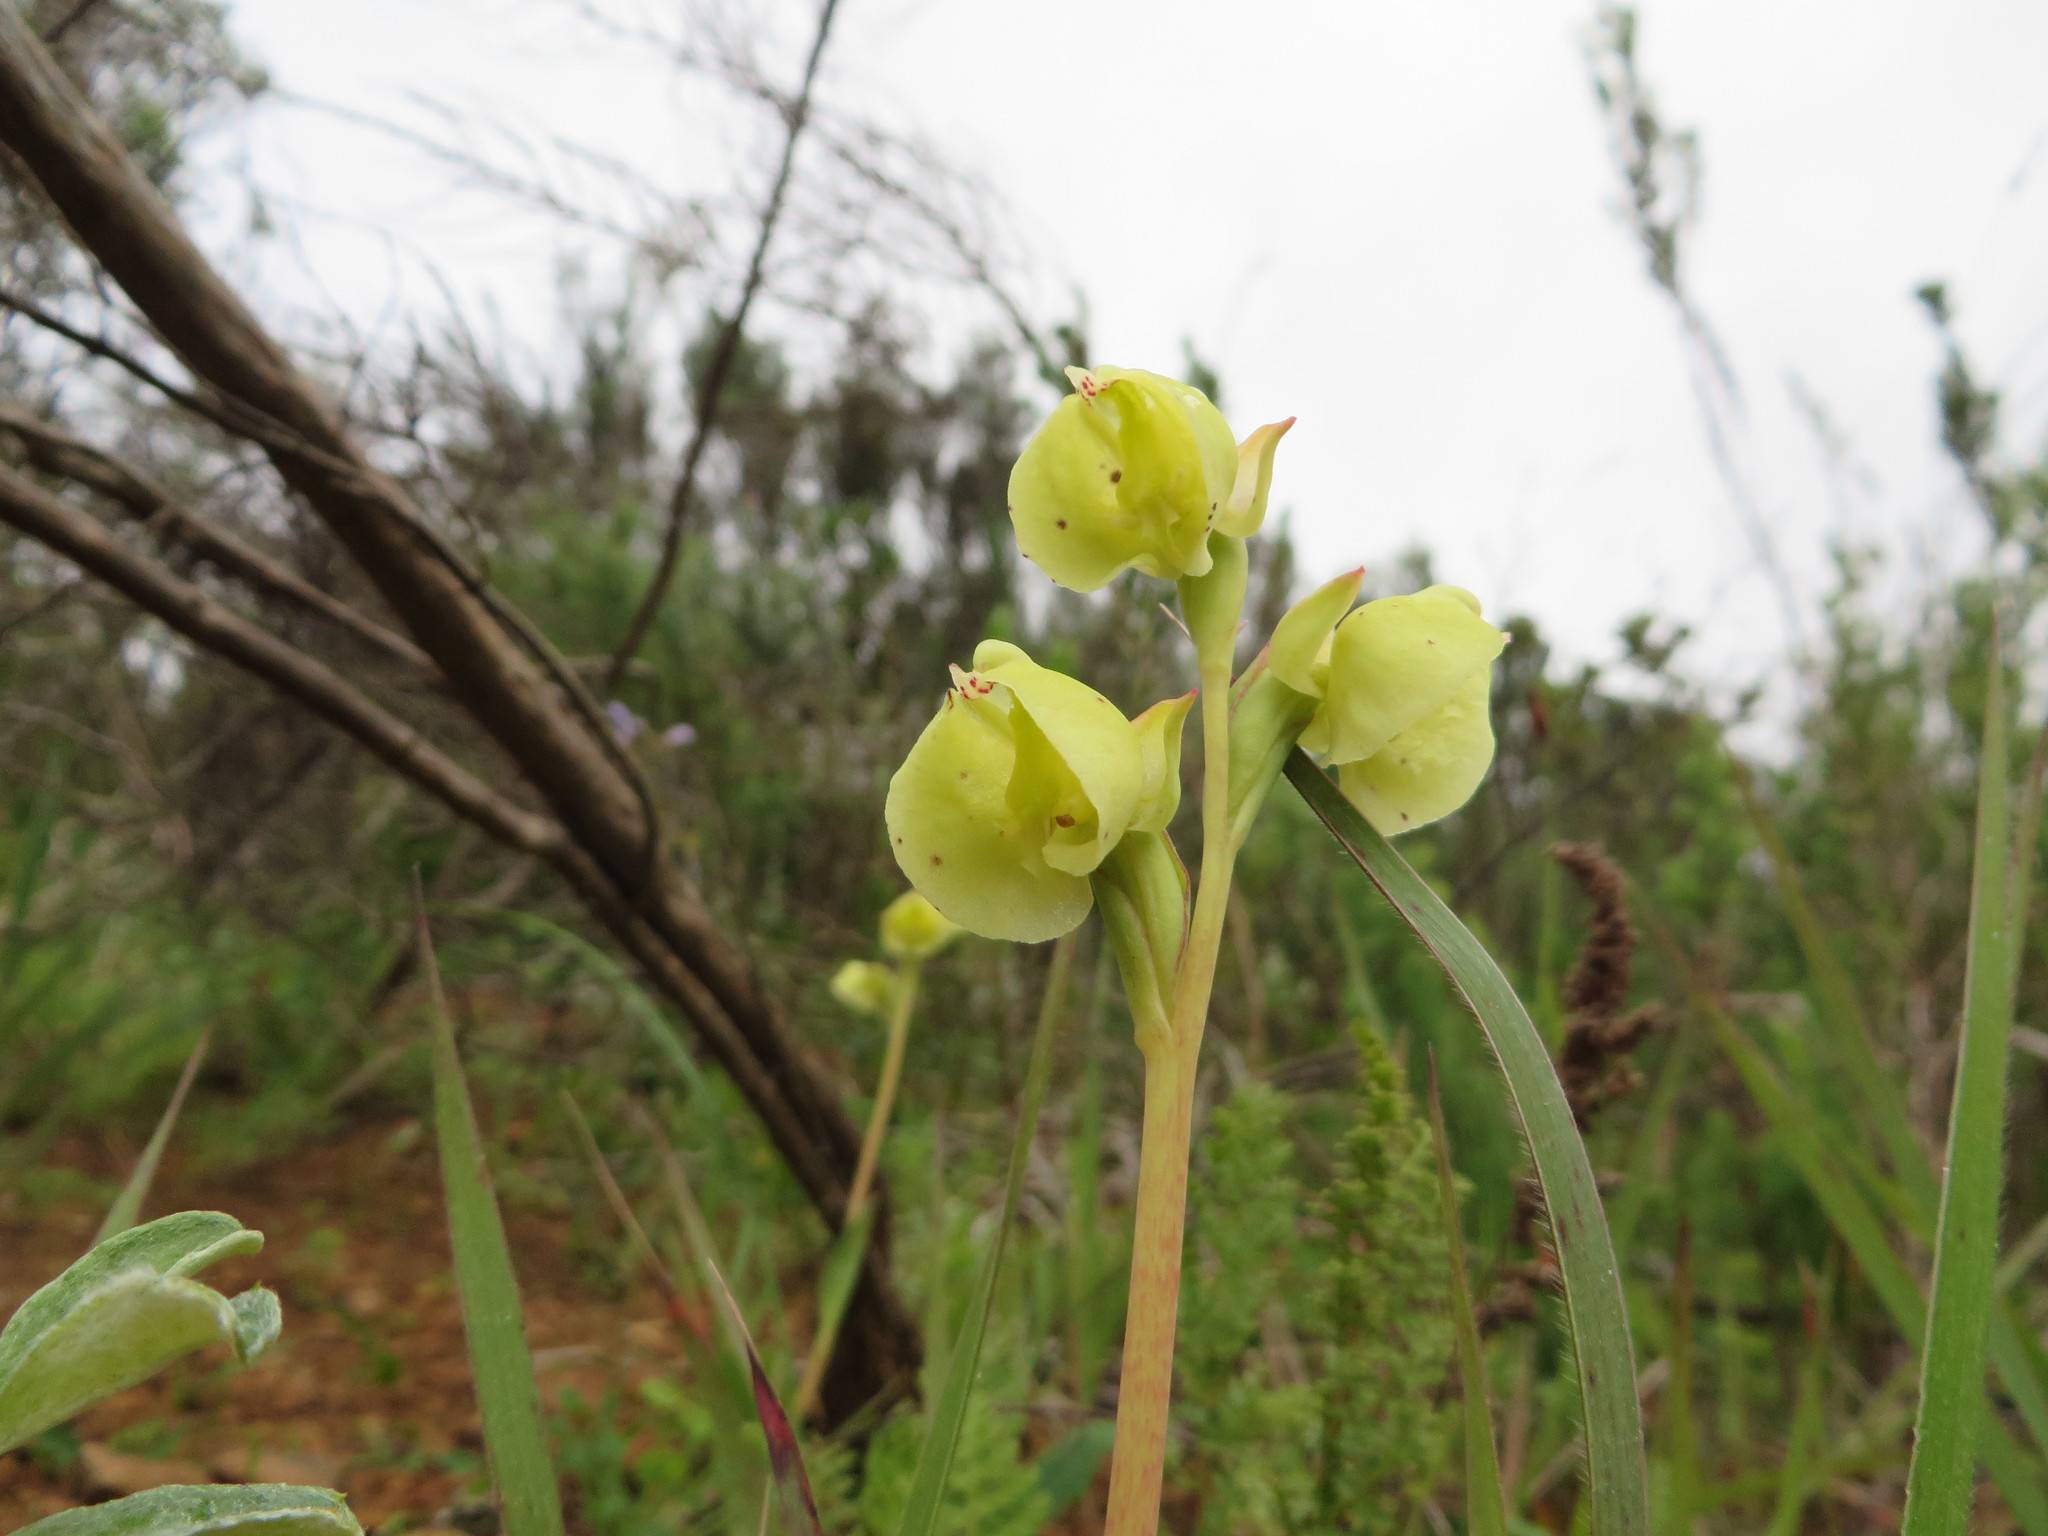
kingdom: Plantae
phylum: Tracheophyta
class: Liliopsida
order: Asparagales
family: Orchidaceae
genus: Pterygodium
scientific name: Pterygodium catholicum
